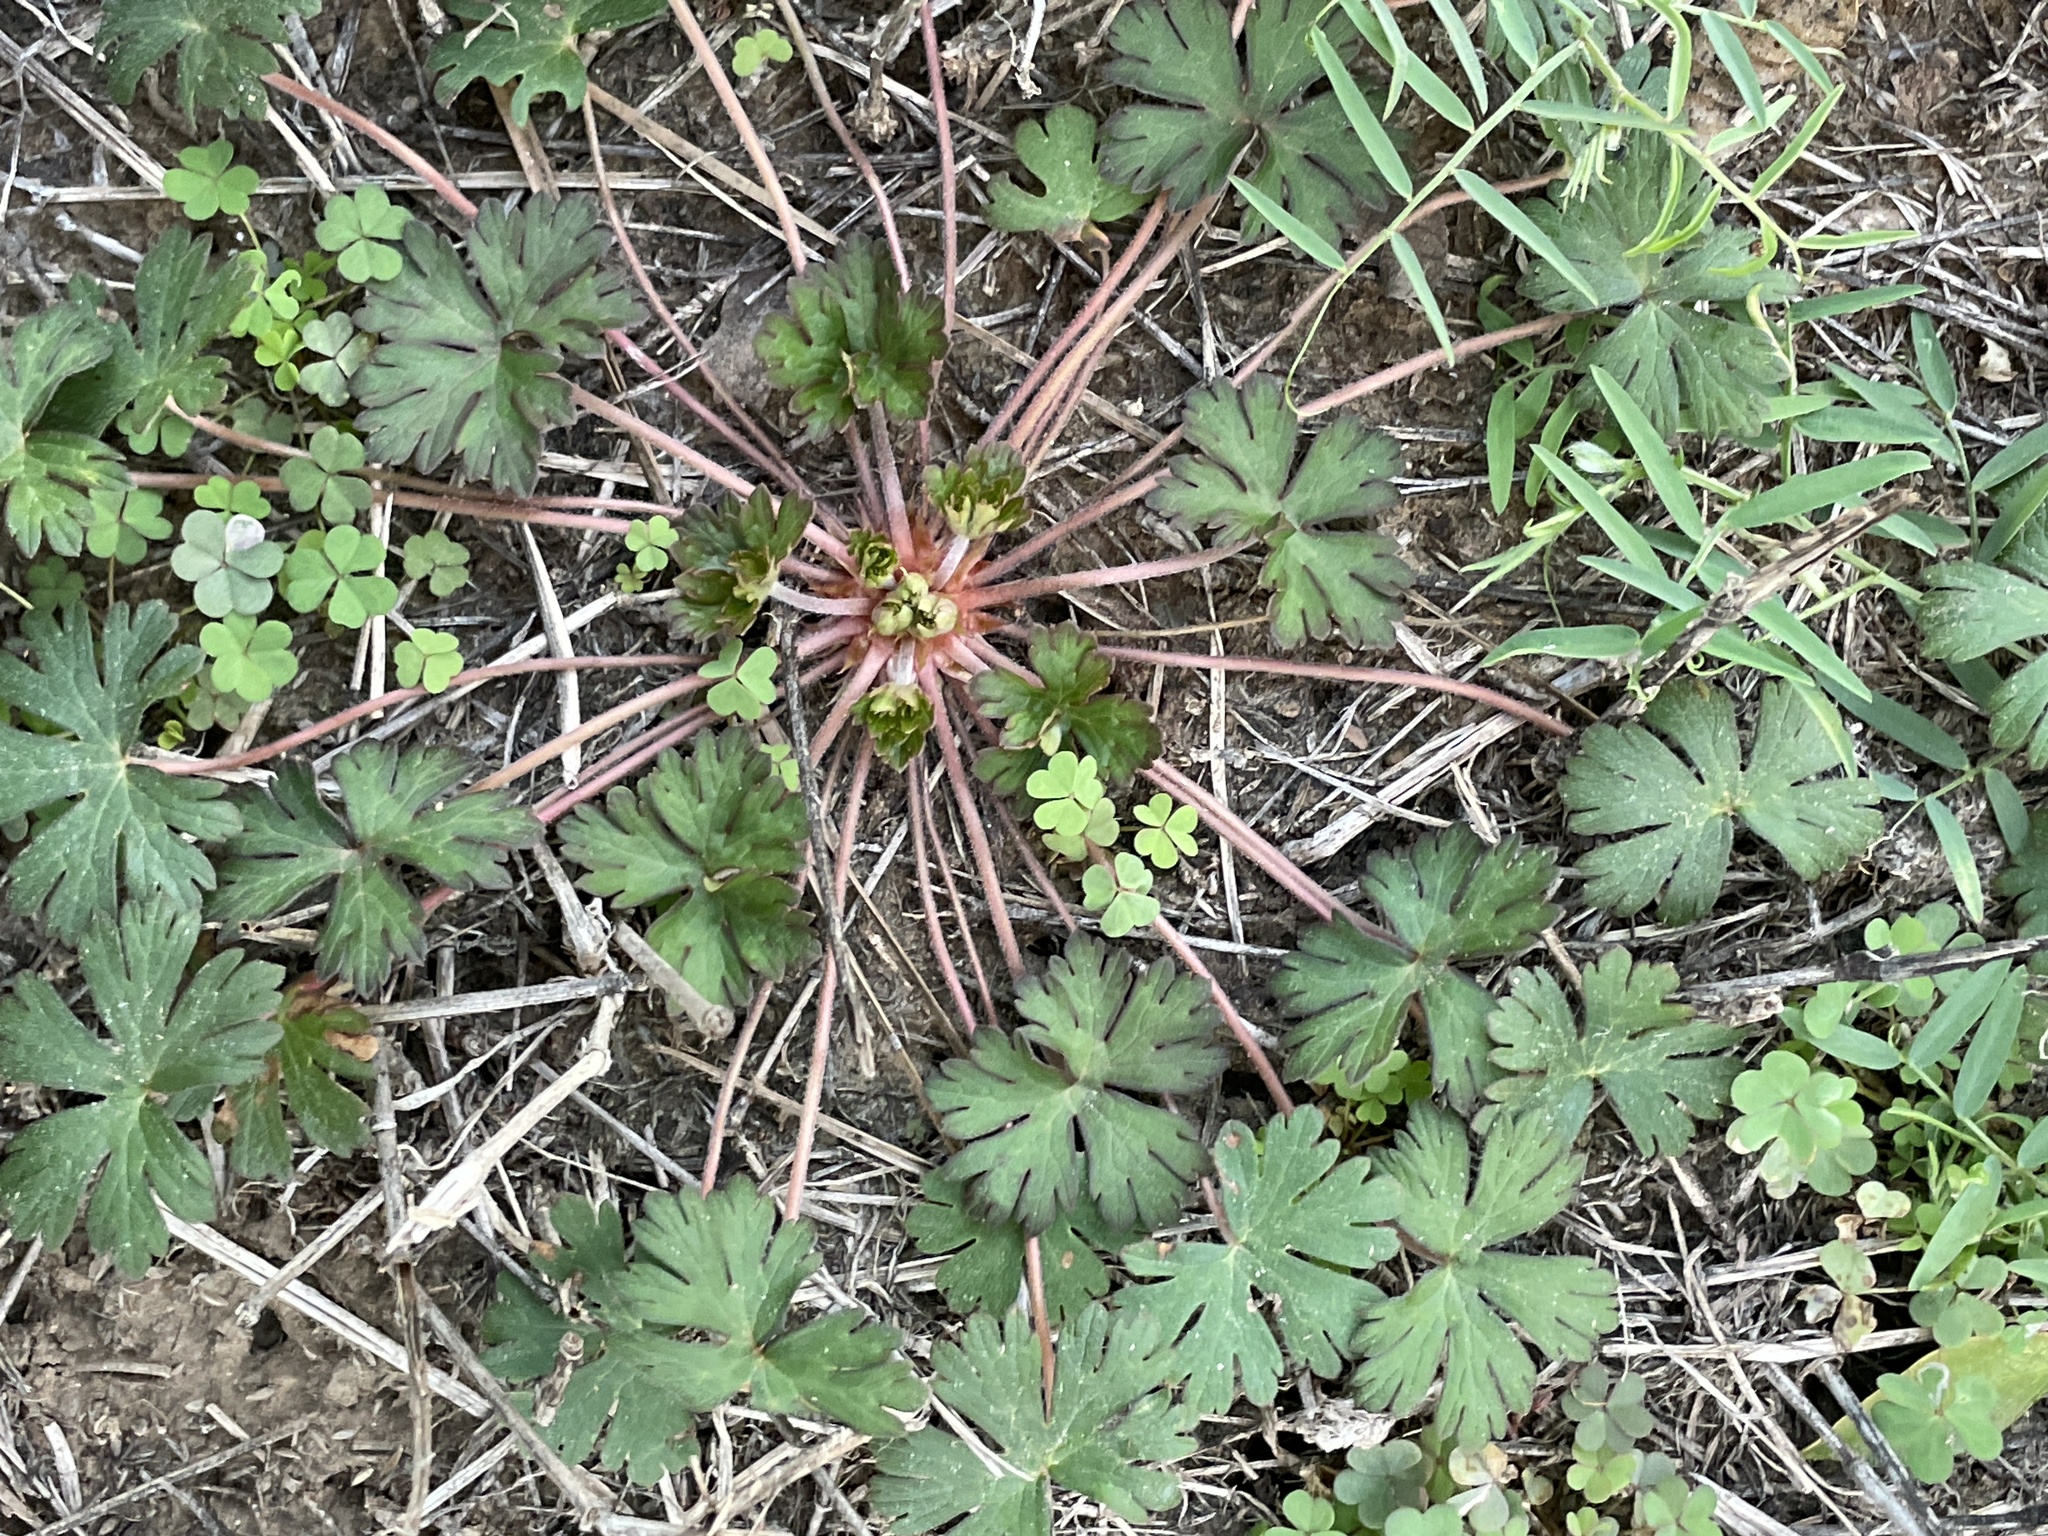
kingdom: Plantae
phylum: Tracheophyta
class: Magnoliopsida
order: Geraniales
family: Geraniaceae
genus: Geranium
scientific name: Geranium carolinianum
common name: Carolina crane's-bill
